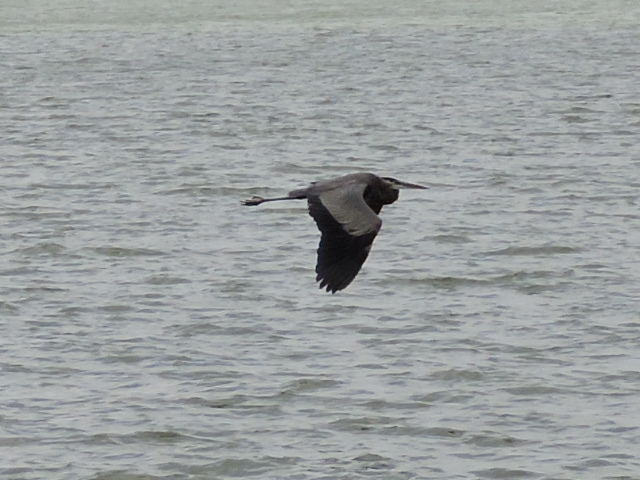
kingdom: Animalia
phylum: Chordata
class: Aves
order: Pelecaniformes
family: Ardeidae
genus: Ardea
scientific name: Ardea herodias
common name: Great blue heron
